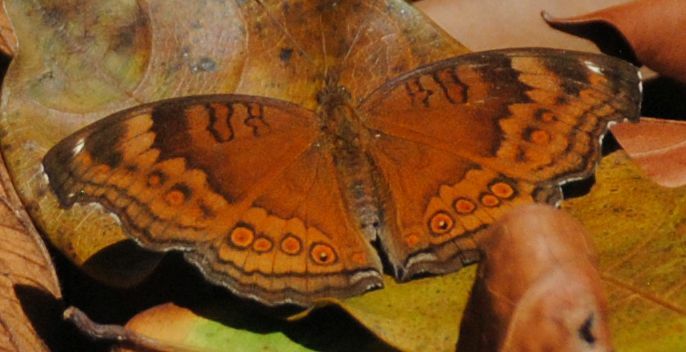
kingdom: Animalia
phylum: Arthropoda
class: Insecta
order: Lepidoptera
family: Nymphalidae
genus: Junonia
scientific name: Junonia hedonia
